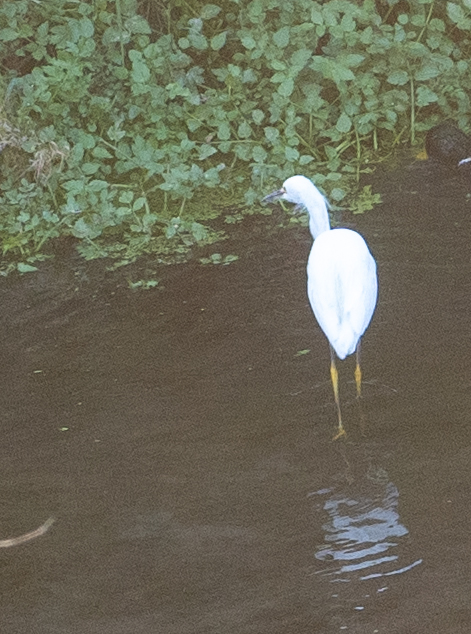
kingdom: Animalia
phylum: Chordata
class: Aves
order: Pelecaniformes
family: Ardeidae
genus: Egretta
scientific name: Egretta thula
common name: Snowy egret
